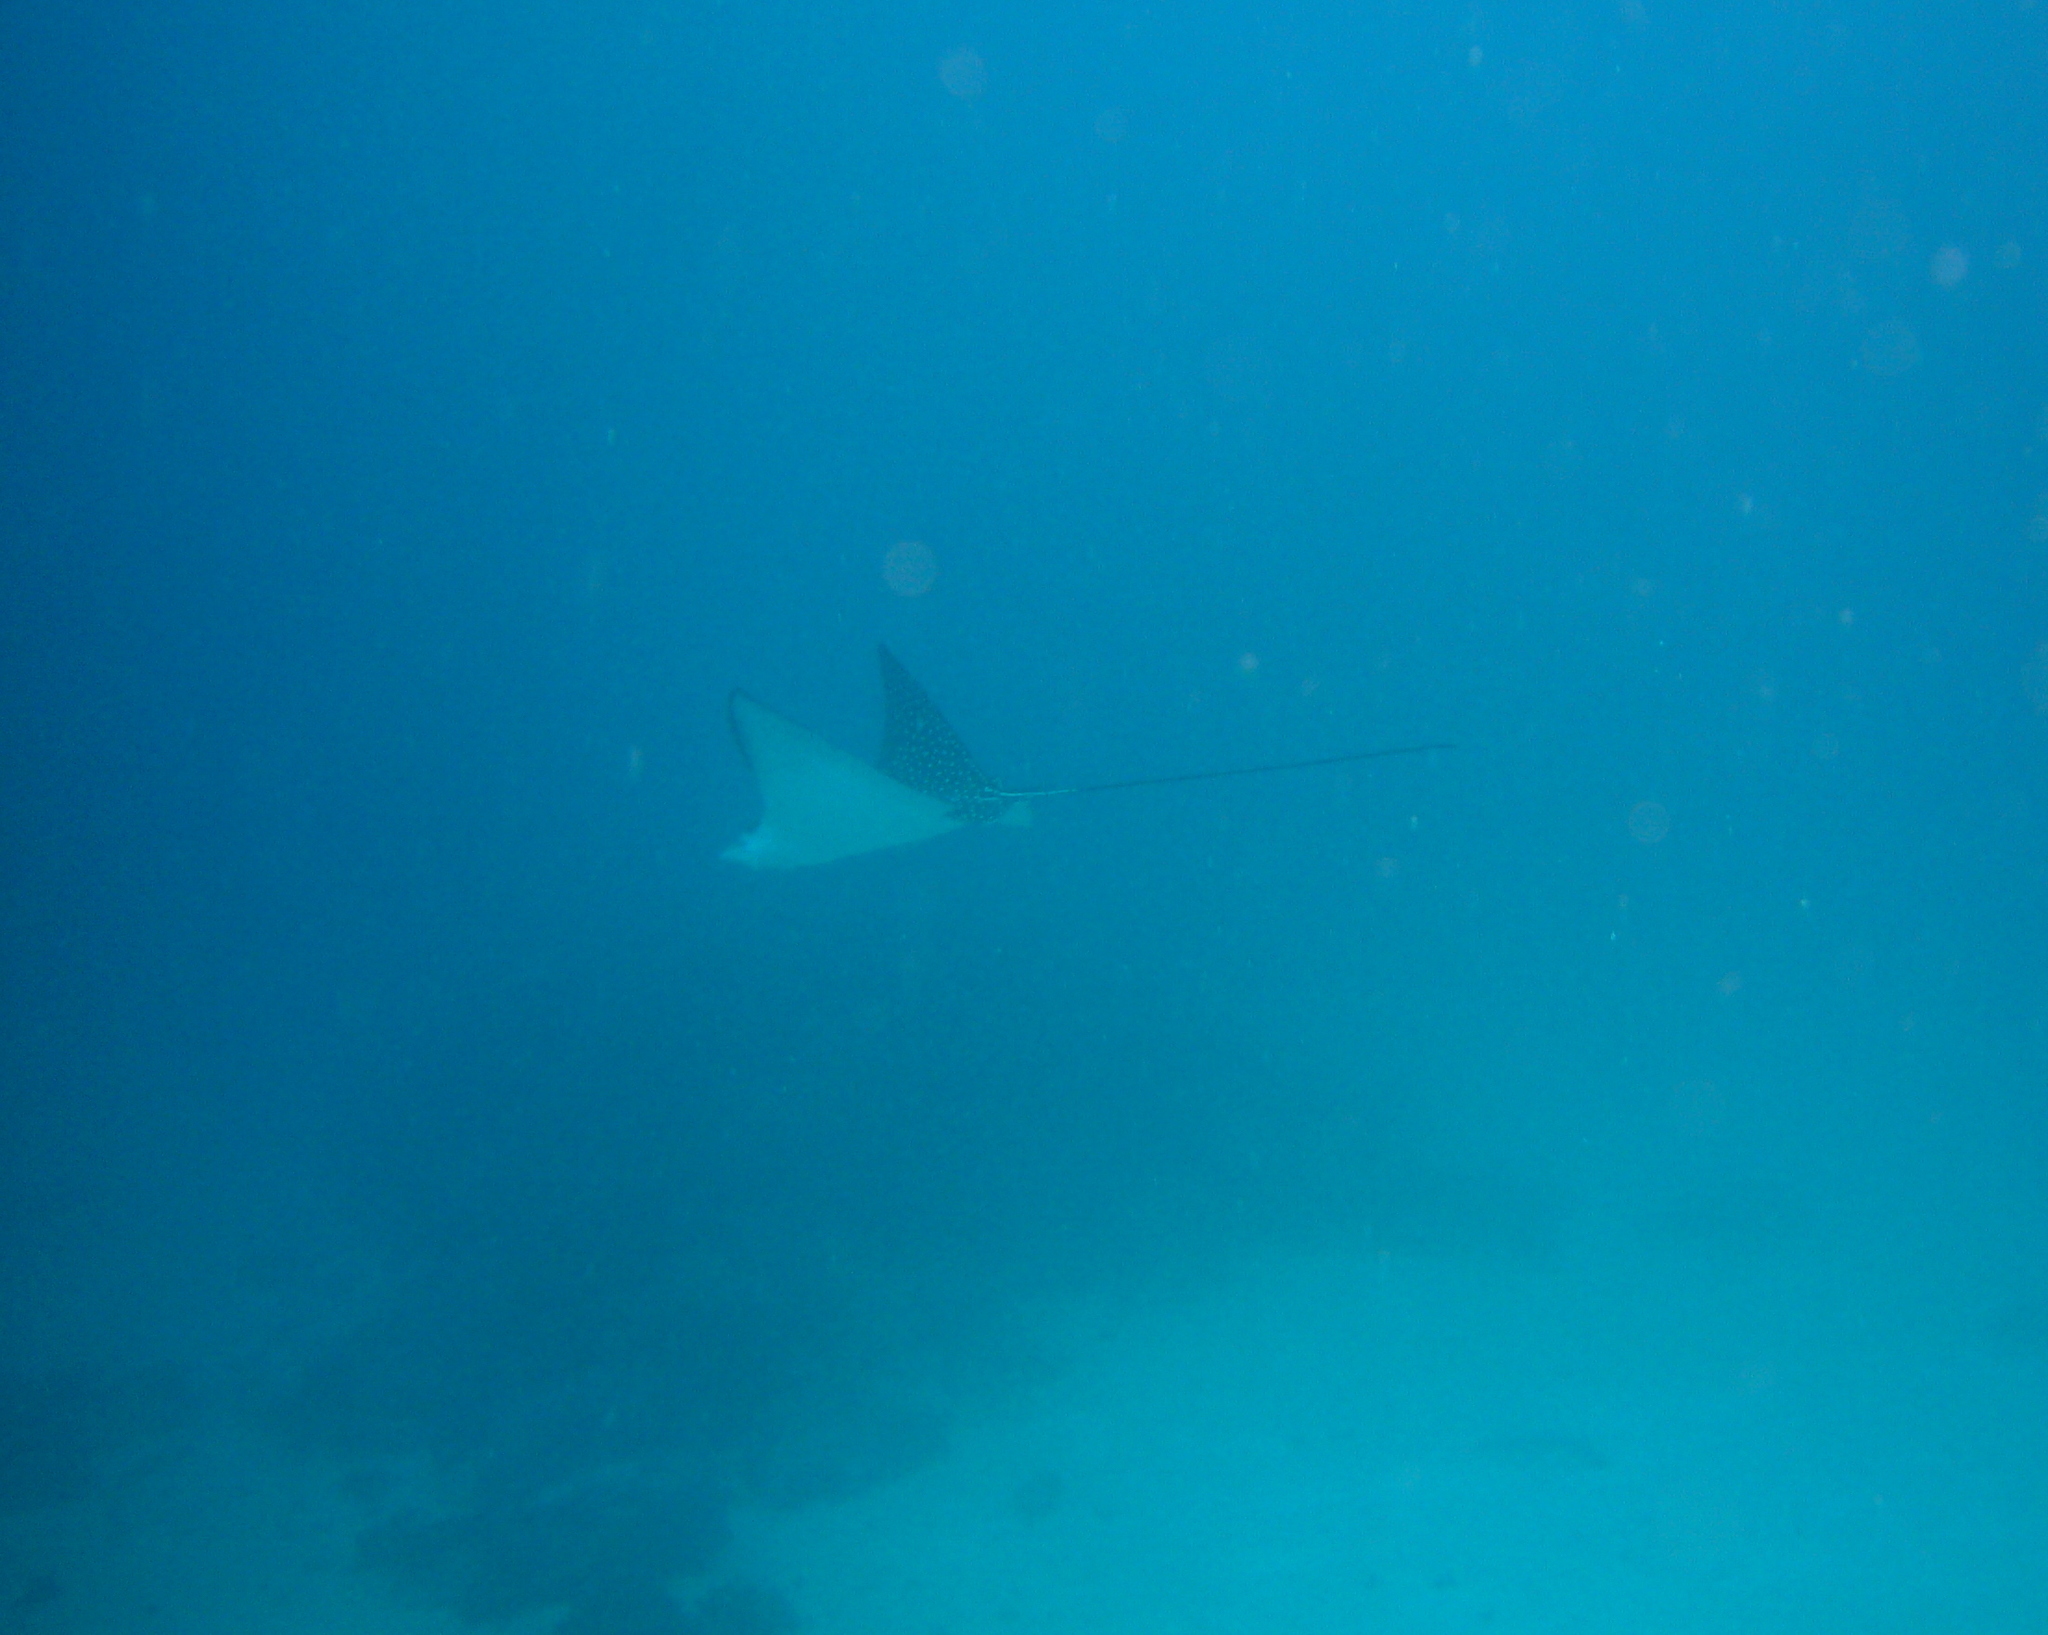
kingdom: Animalia
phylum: Chordata
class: Elasmobranchii
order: Myliobatiformes
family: Myliobatidae
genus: Aetobatus
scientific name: Aetobatus ocellatus
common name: Ocellated eagle ray
